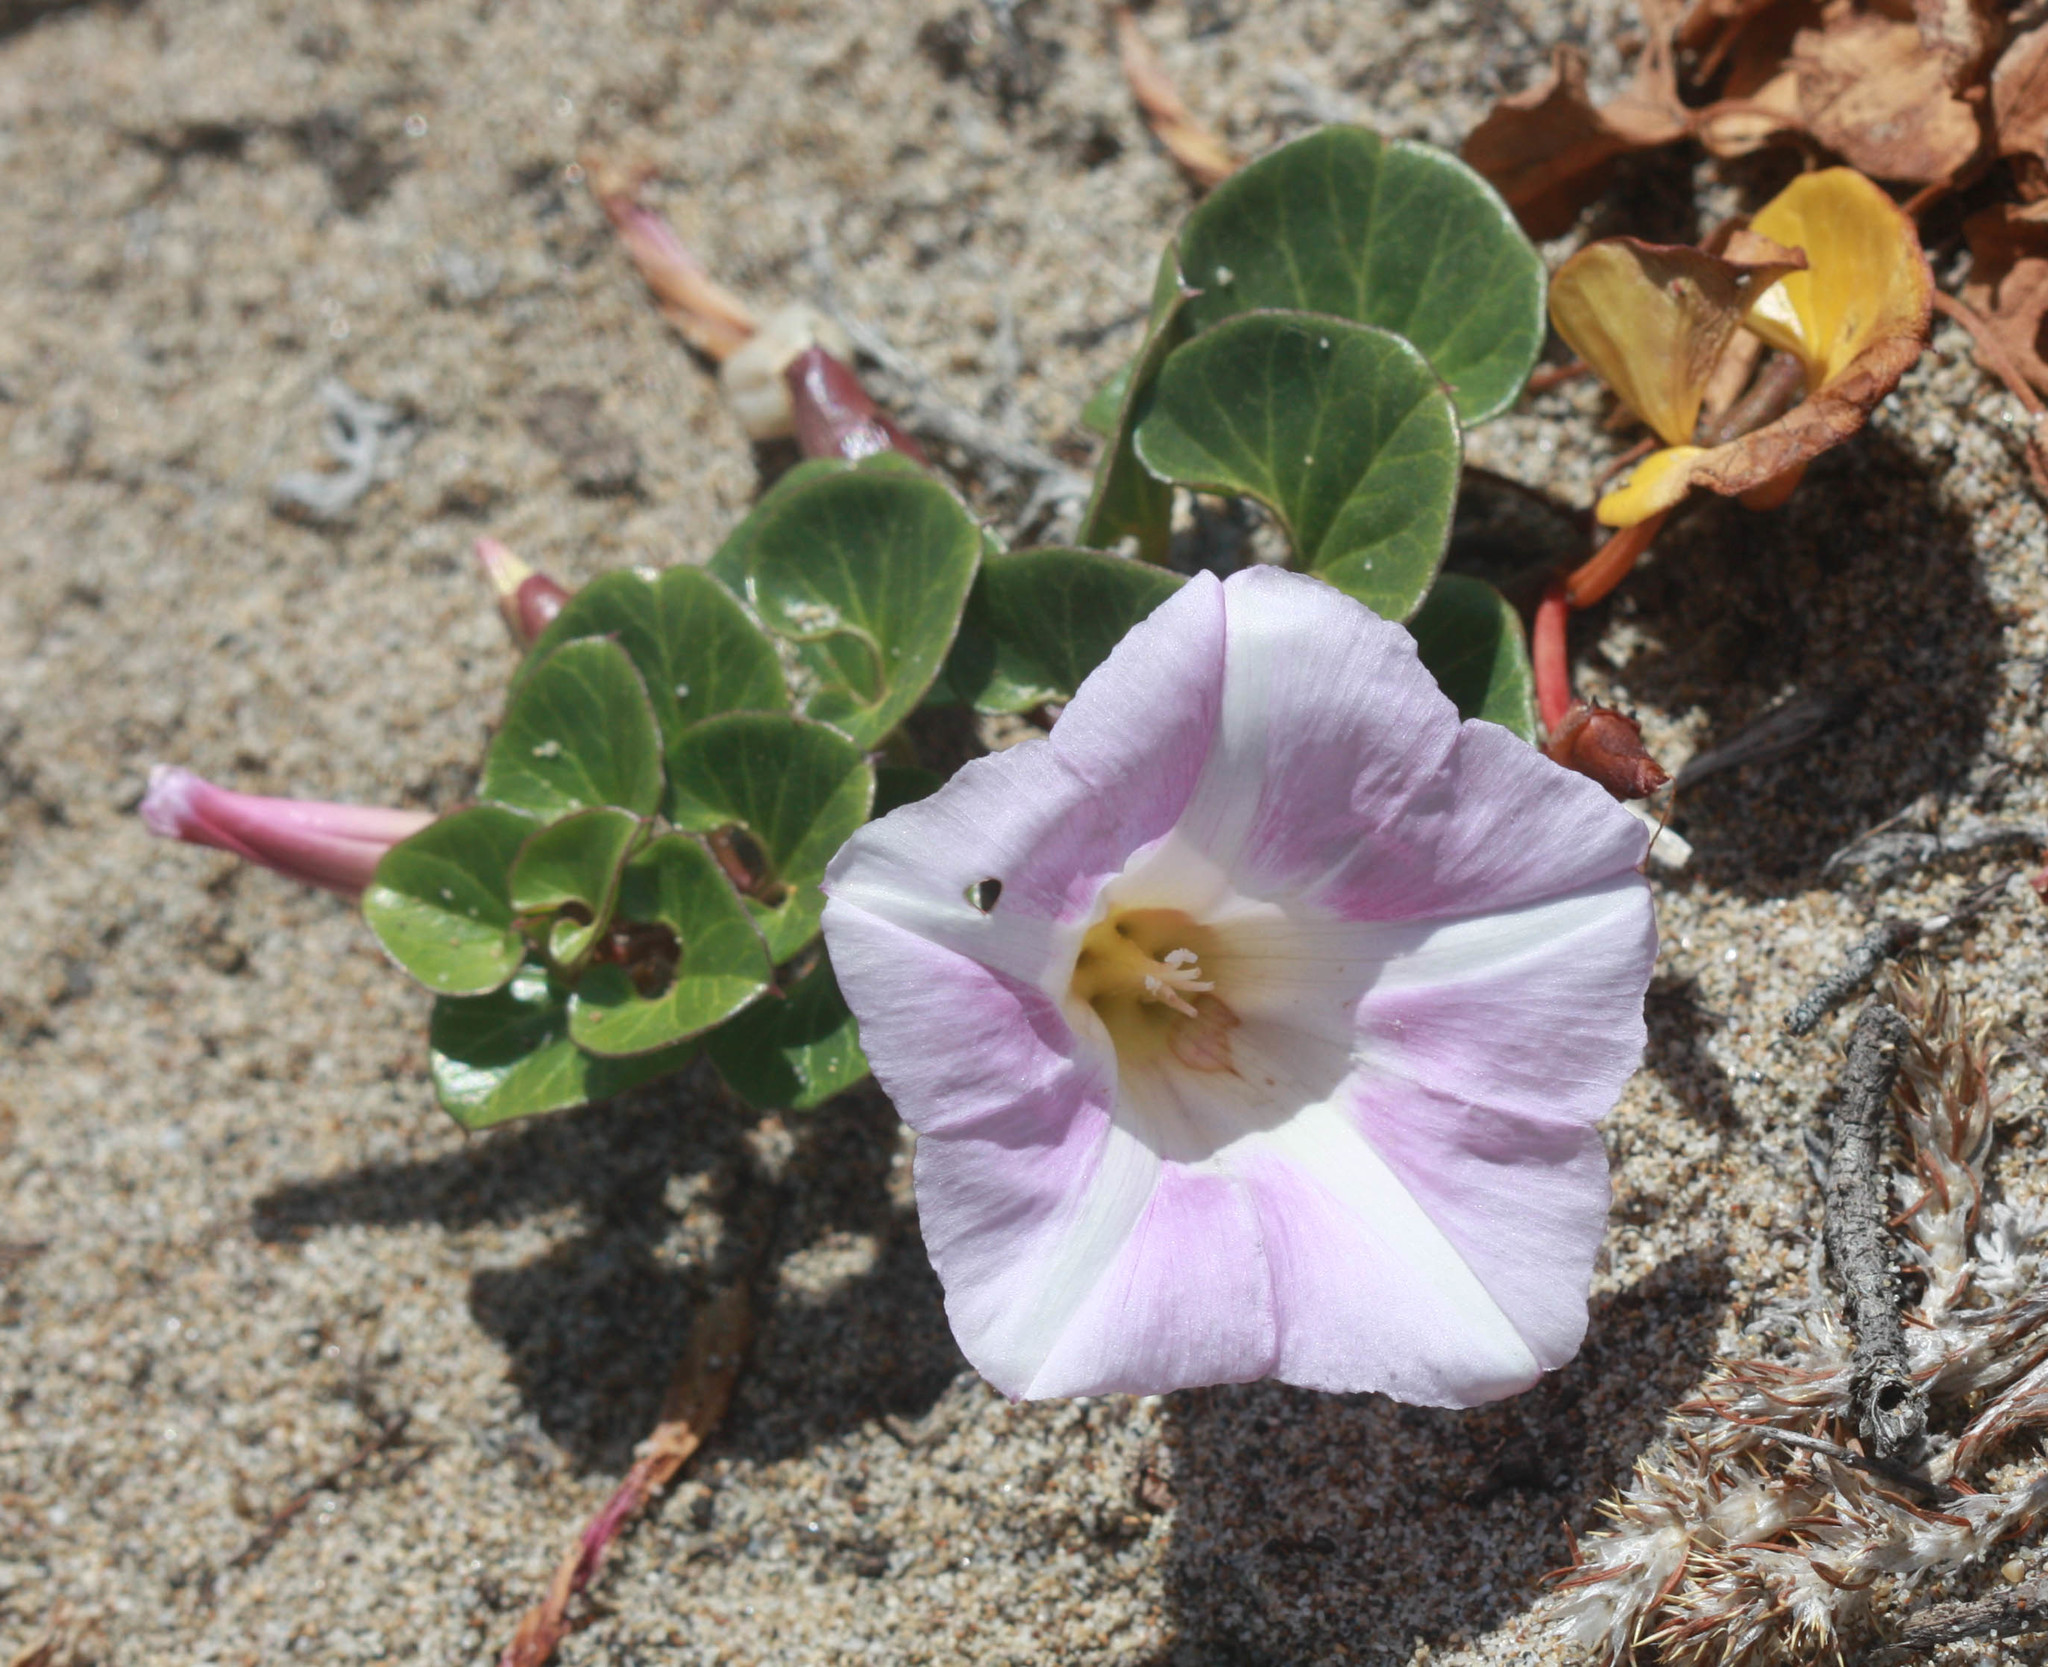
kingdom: Plantae
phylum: Tracheophyta
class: Magnoliopsida
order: Solanales
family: Convolvulaceae
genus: Calystegia
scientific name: Calystegia soldanella
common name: Sea bindweed
